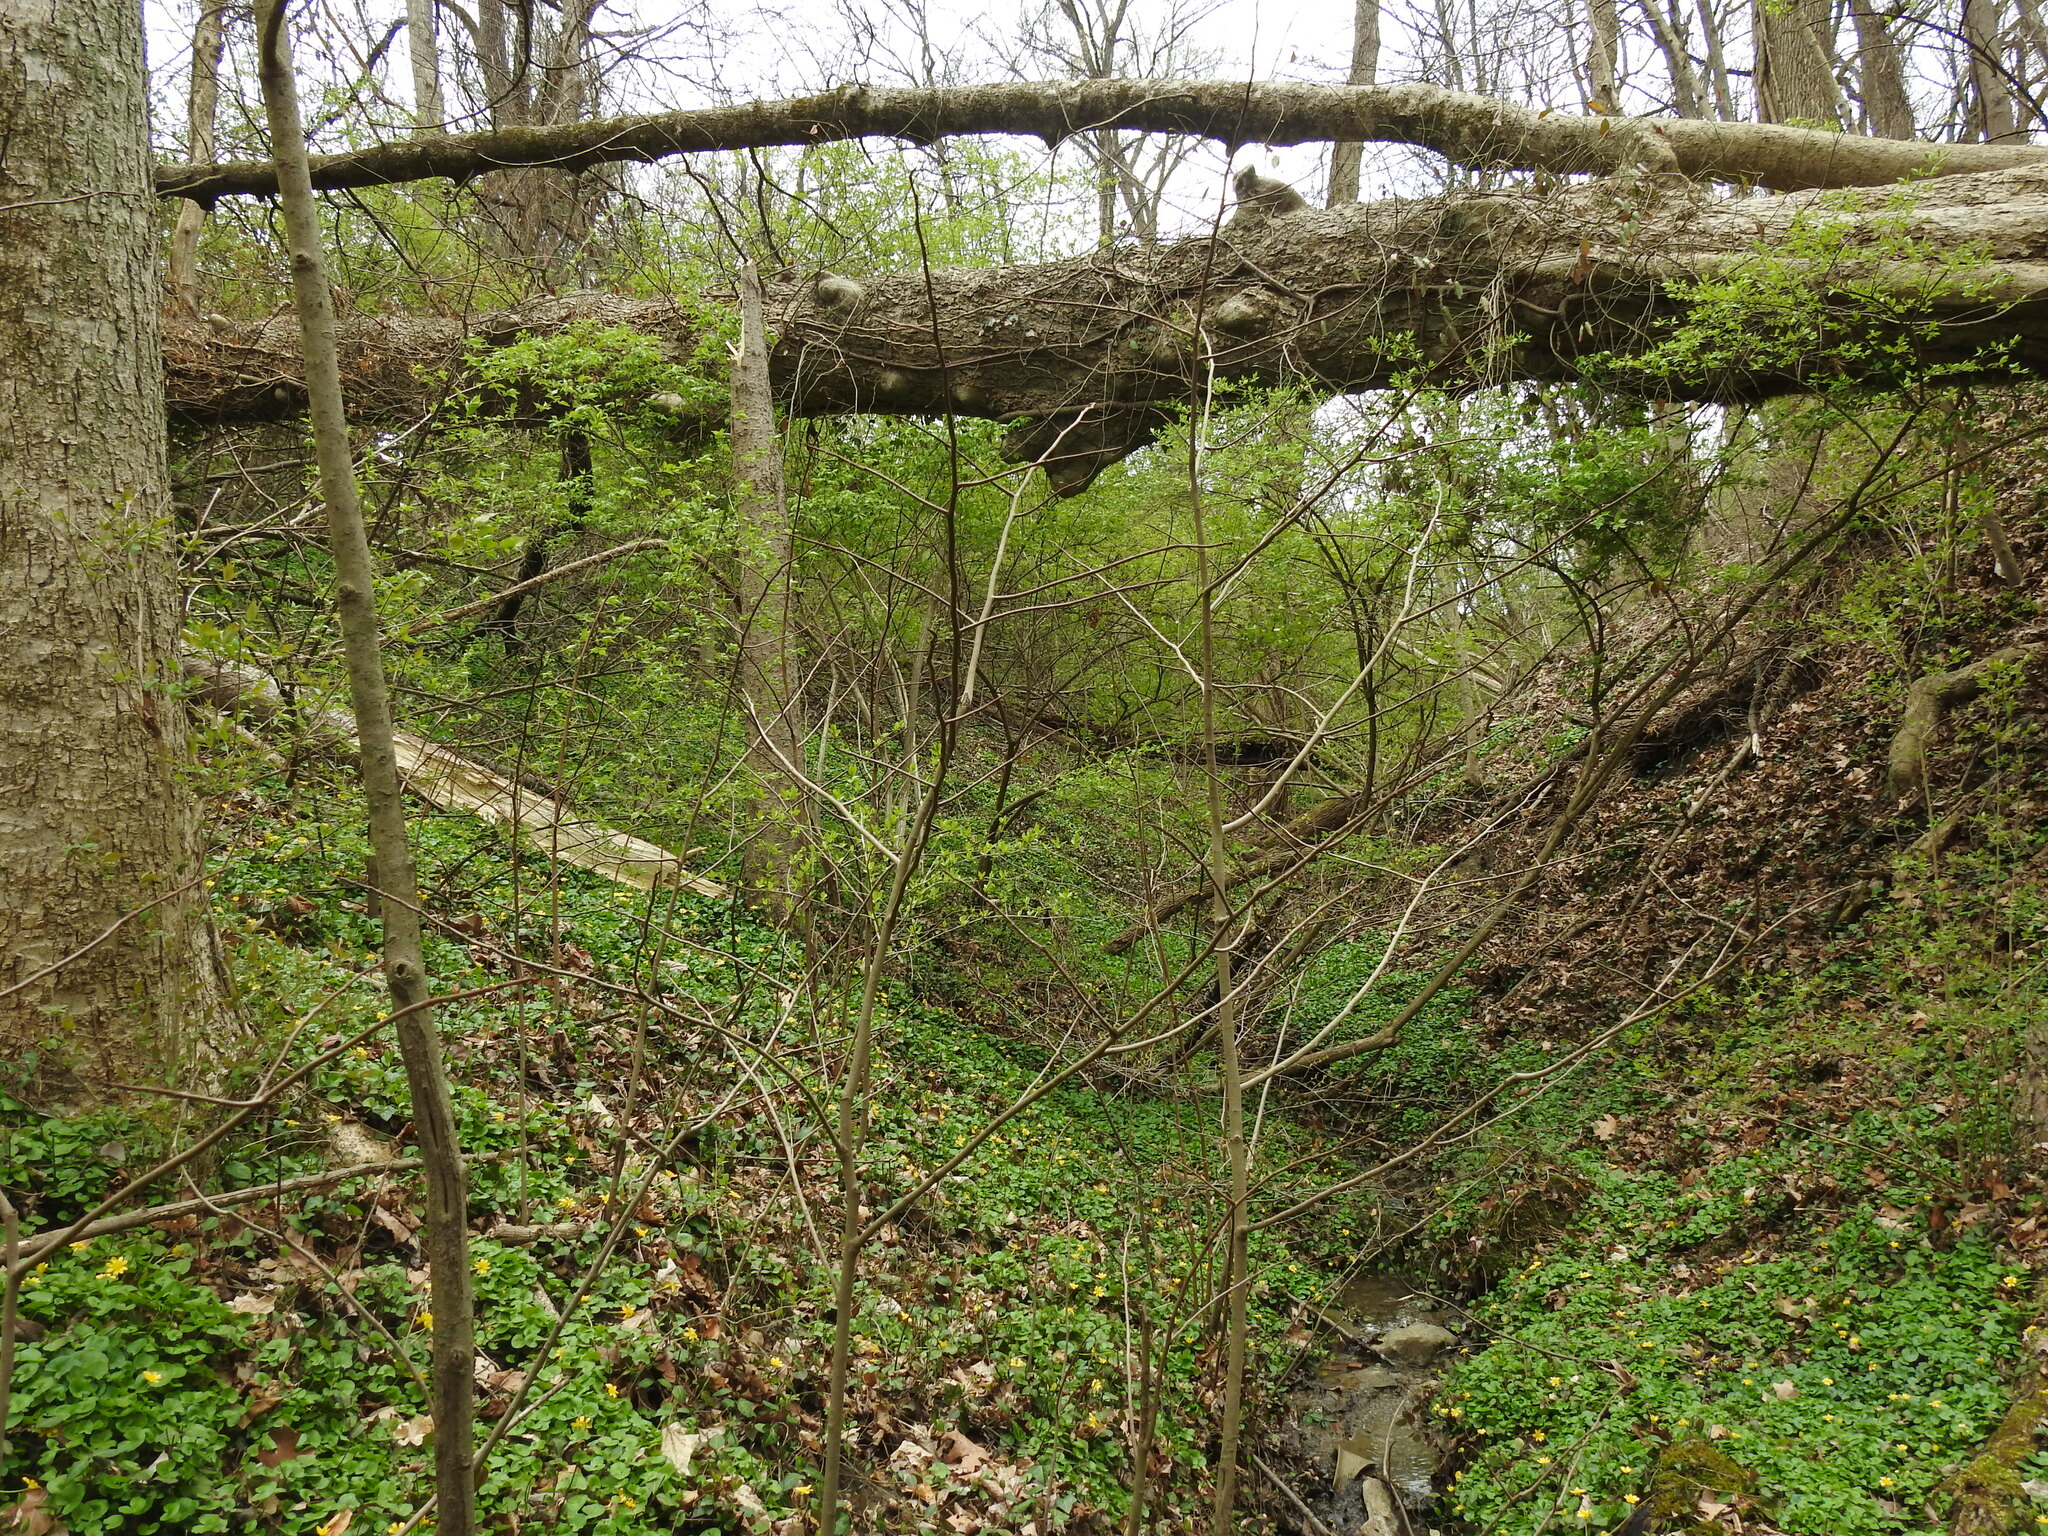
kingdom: Plantae
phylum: Tracheophyta
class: Magnoliopsida
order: Magnoliales
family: Annonaceae
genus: Asimina
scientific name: Asimina triloba
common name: Dog-banana
